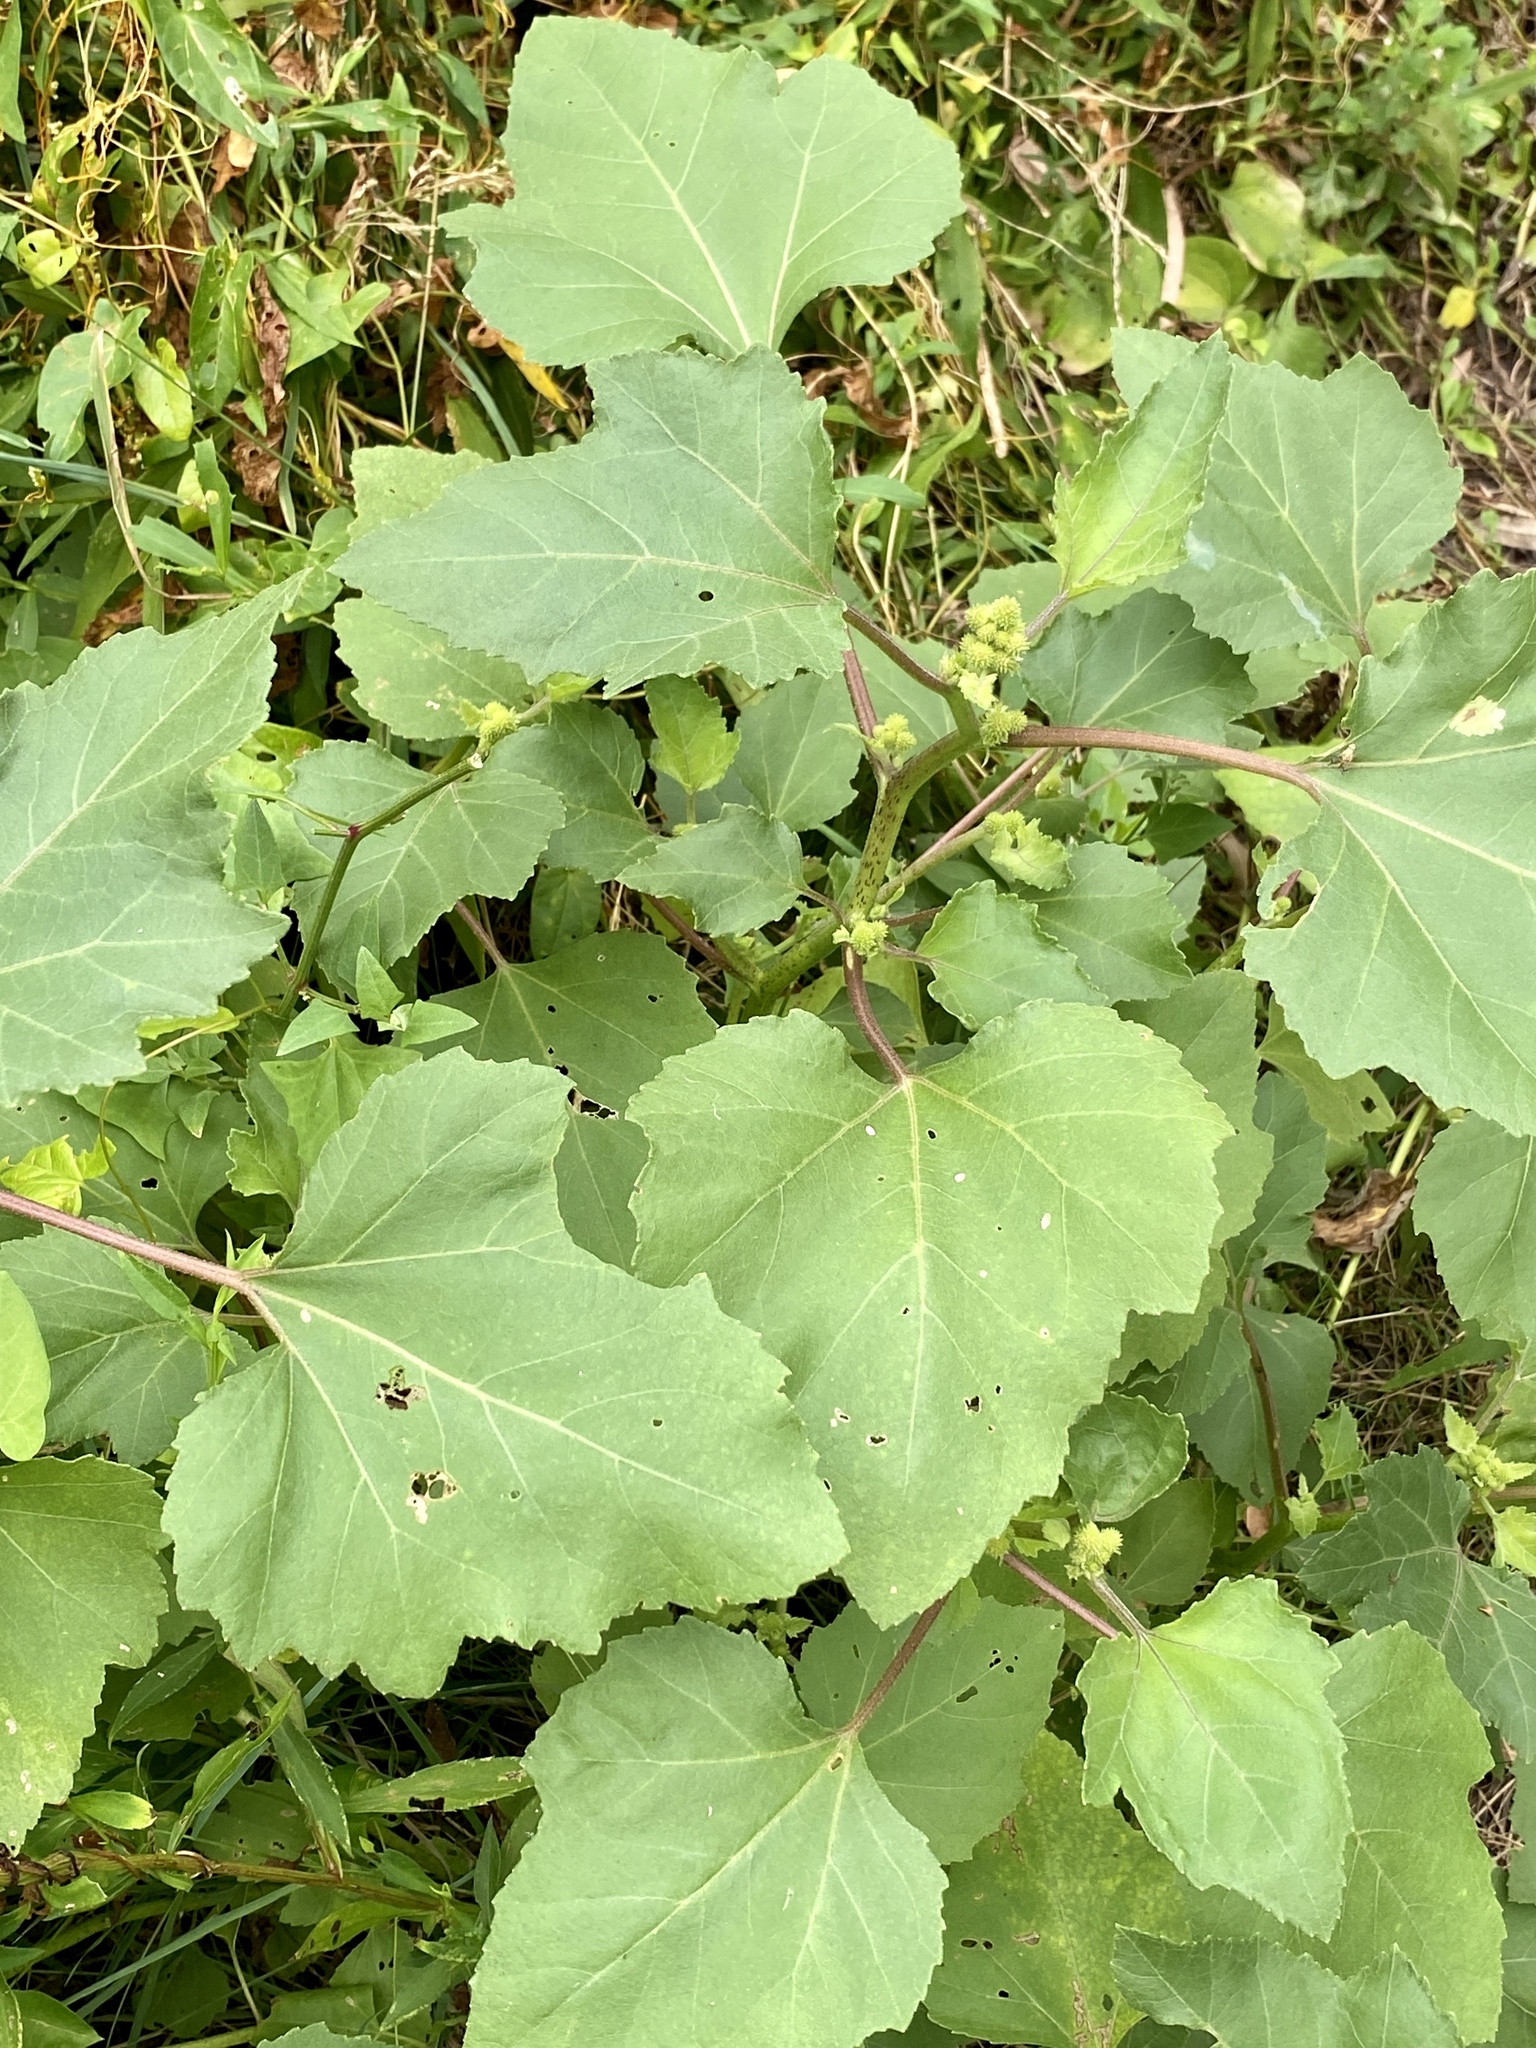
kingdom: Plantae
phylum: Tracheophyta
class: Magnoliopsida
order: Asterales
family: Asteraceae
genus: Xanthium
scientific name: Xanthium strumarium
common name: Rough cocklebur
